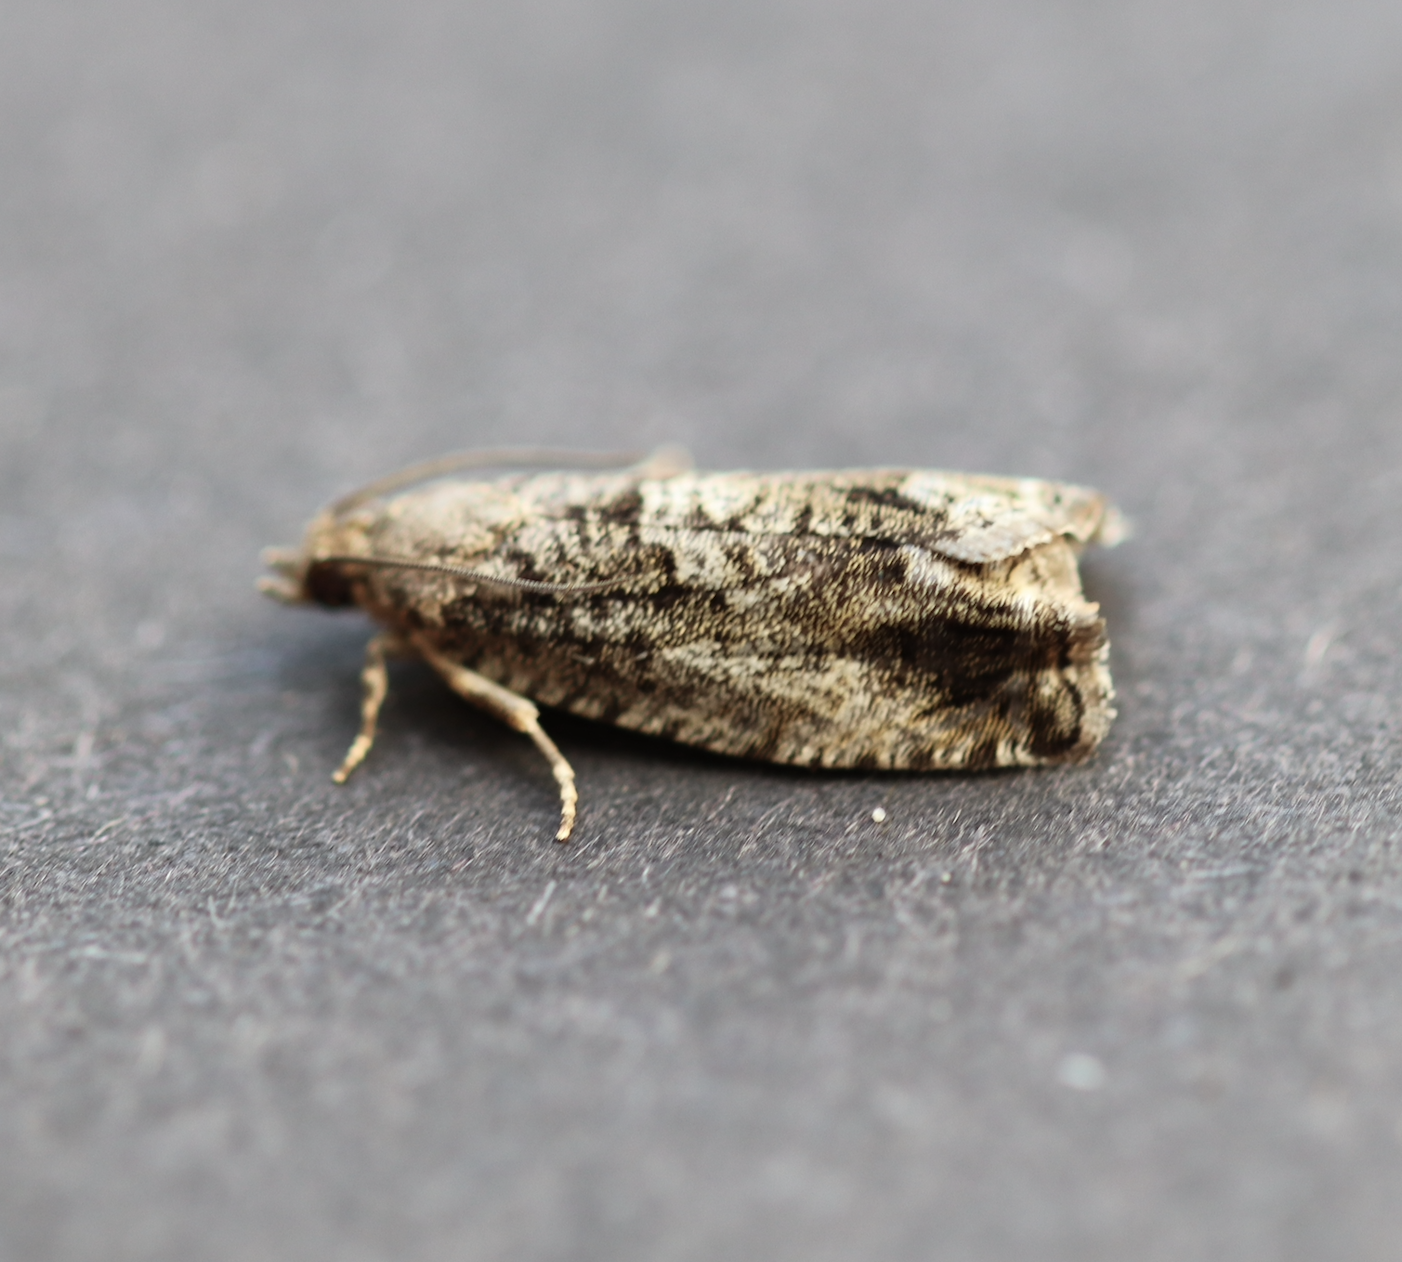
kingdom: Animalia
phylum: Arthropoda
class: Insecta
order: Lepidoptera
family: Tortricidae
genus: Cydia
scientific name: Cydia fagiglandana
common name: Large beech piercer
